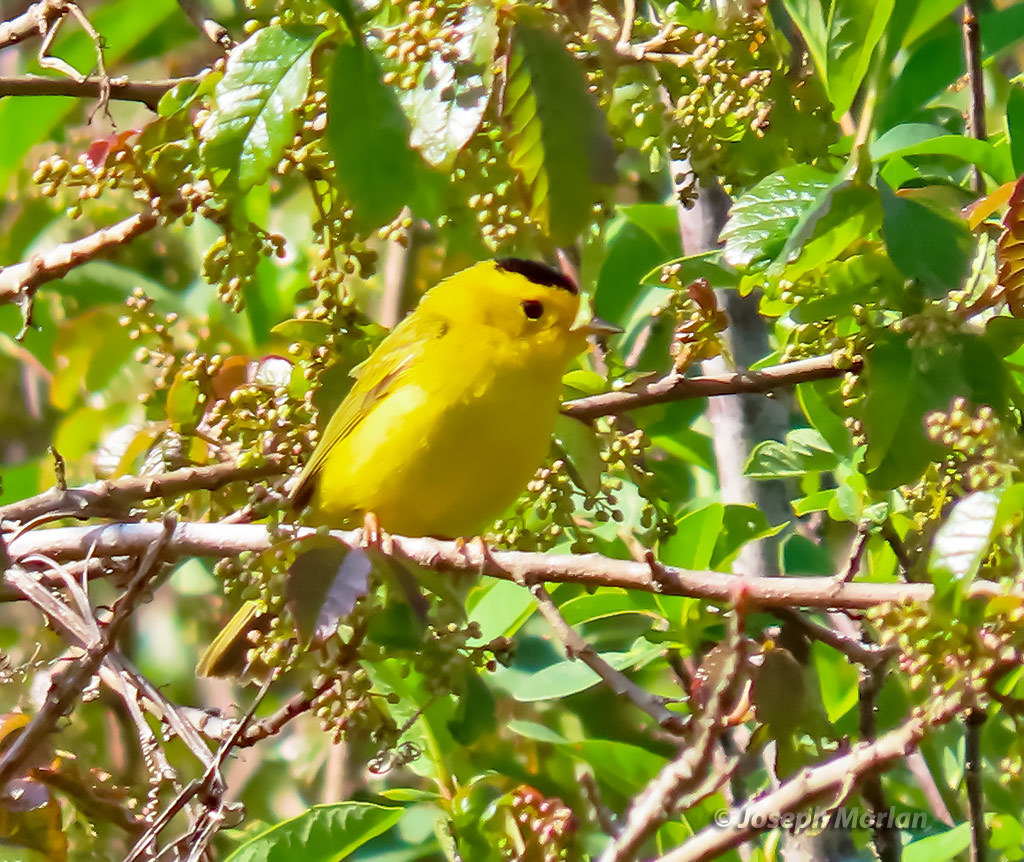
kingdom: Animalia
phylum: Chordata
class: Aves
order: Passeriformes
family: Parulidae
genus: Cardellina
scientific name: Cardellina pusilla
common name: Wilson's warbler
